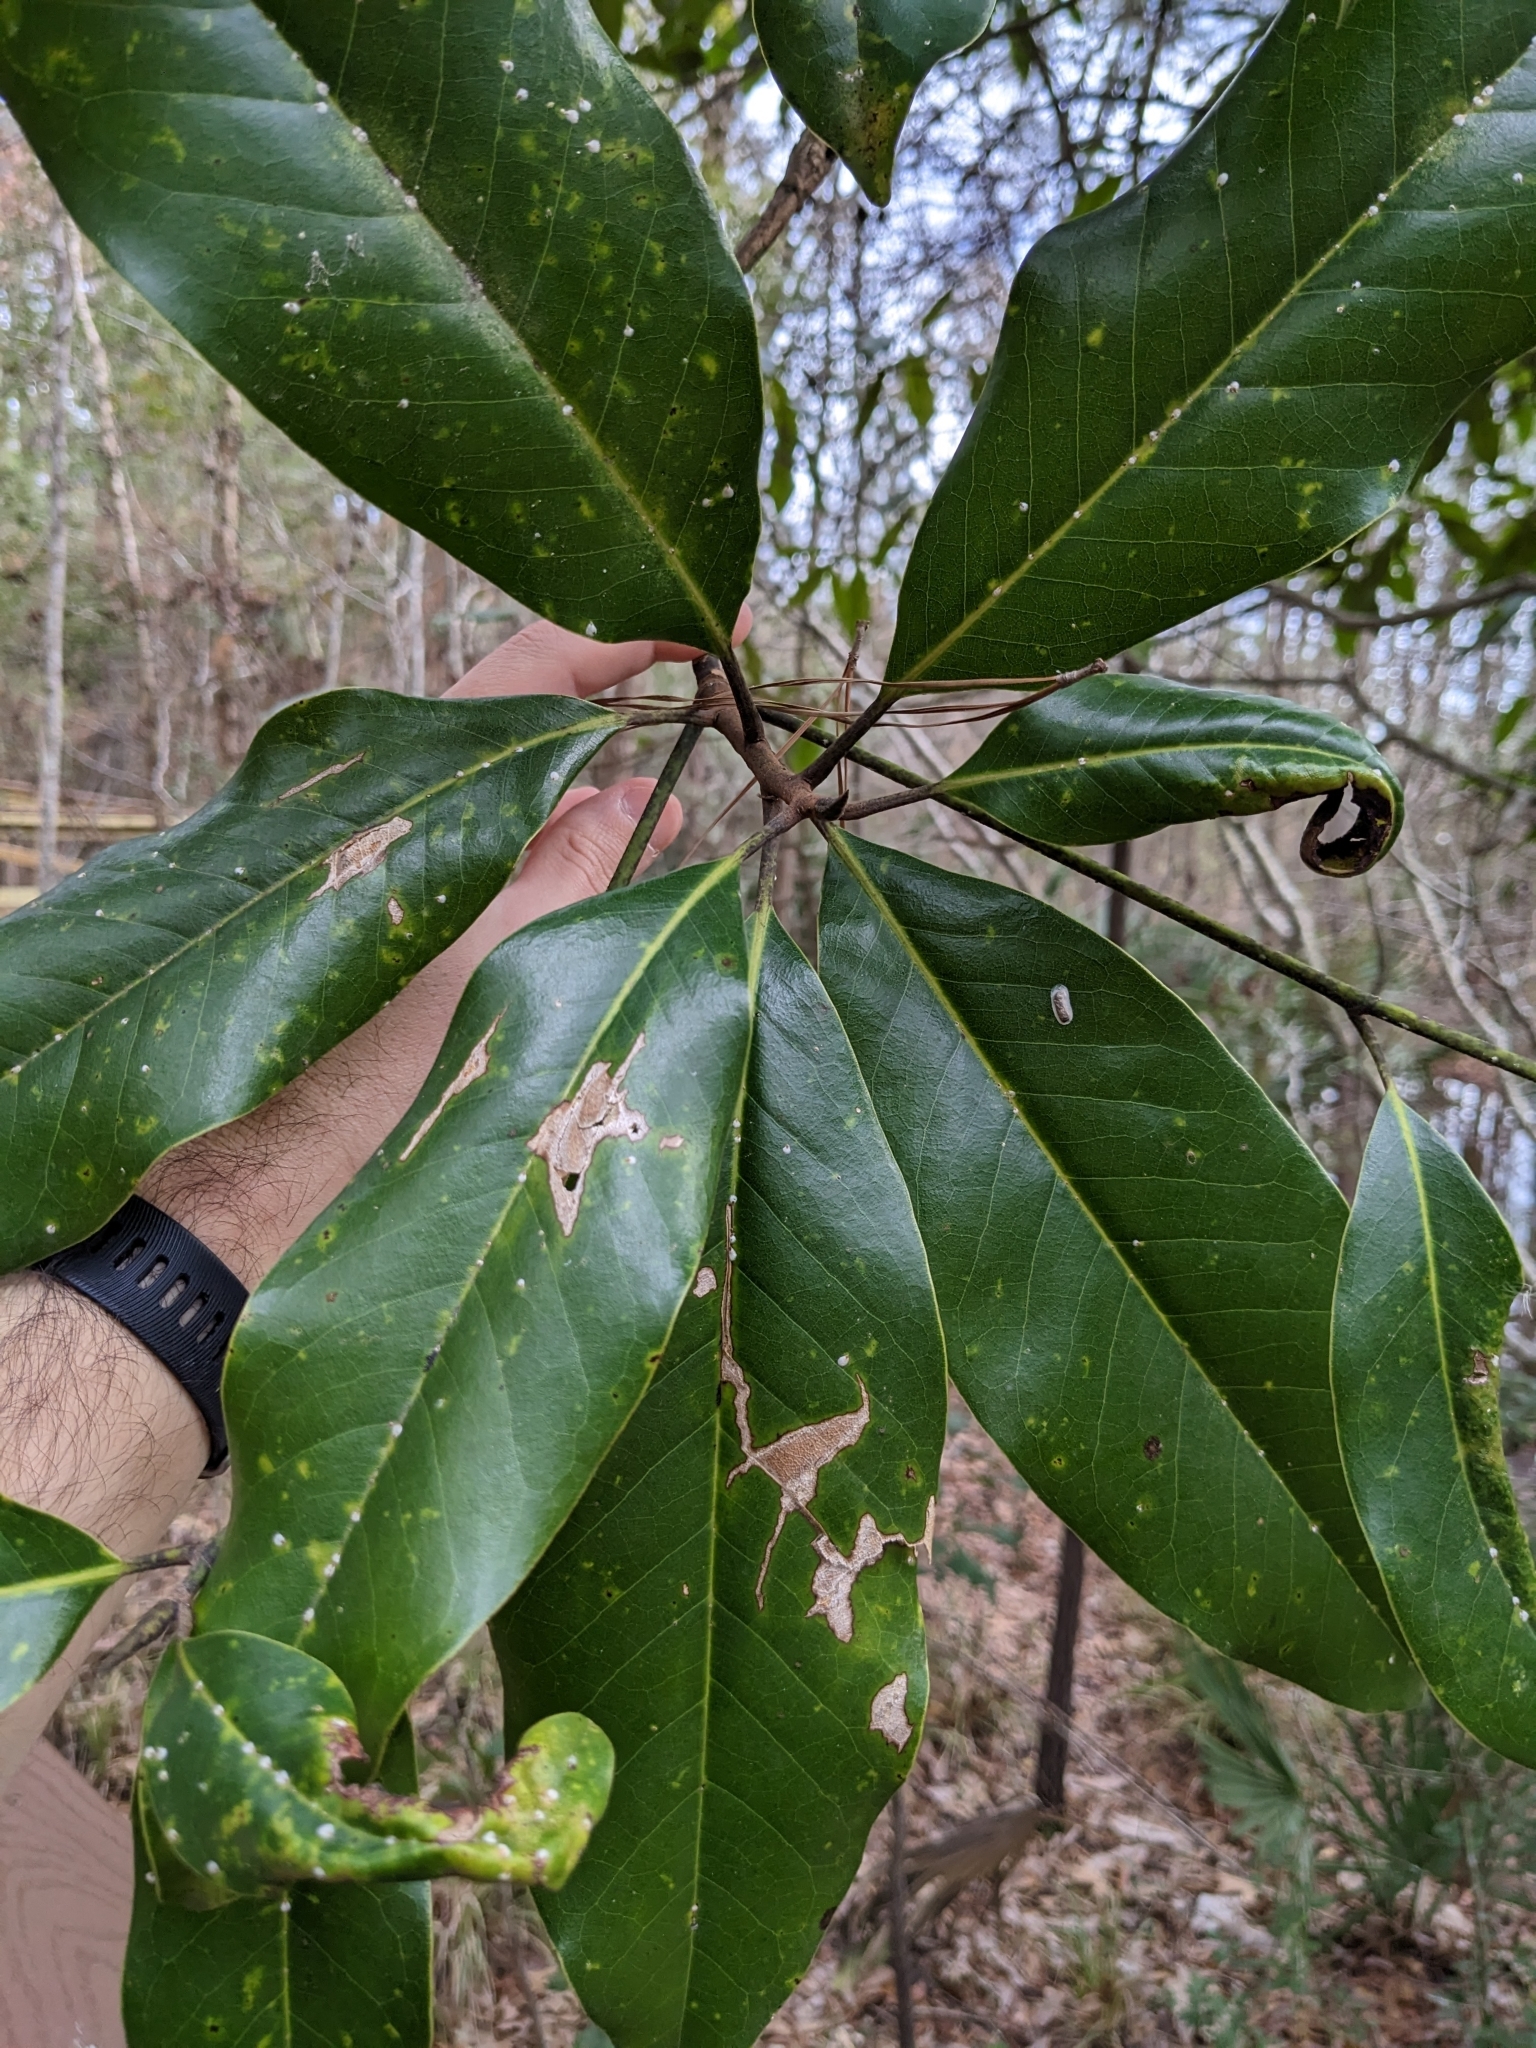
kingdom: Plantae
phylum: Tracheophyta
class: Magnoliopsida
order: Magnoliales
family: Magnoliaceae
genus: Magnolia
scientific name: Magnolia grandiflora
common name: Southern magnolia
